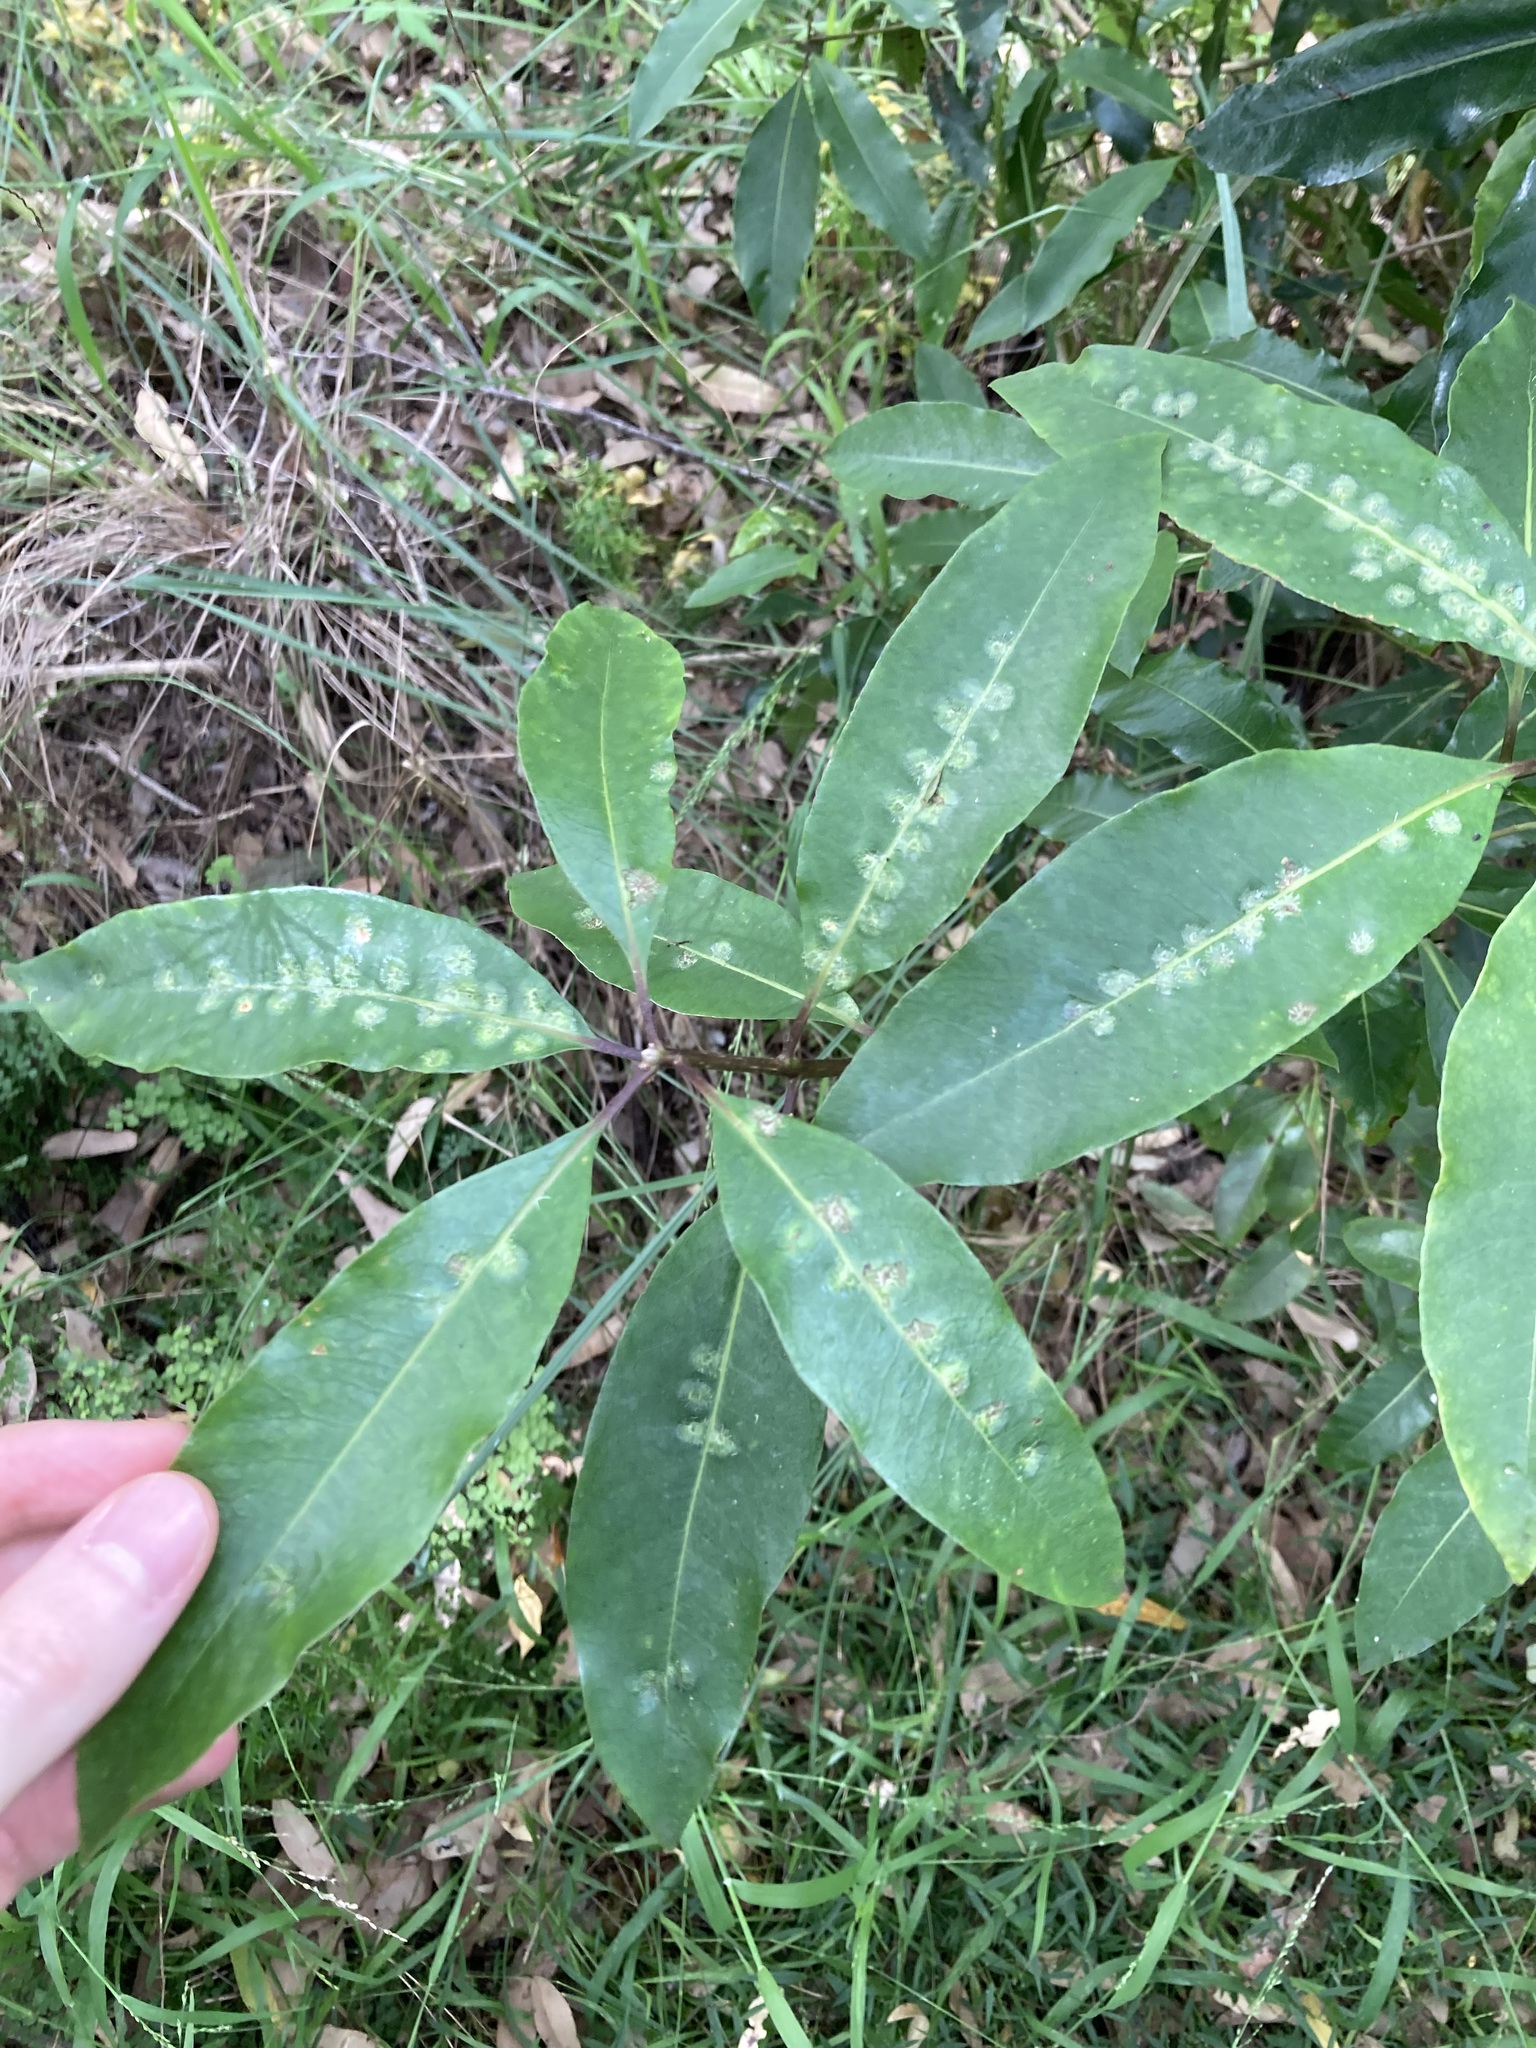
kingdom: Animalia
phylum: Arthropoda
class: Insecta
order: Diptera
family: Agromyzidae
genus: Phytoliriomyza
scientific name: Phytoliriomyza pittosporophylli
